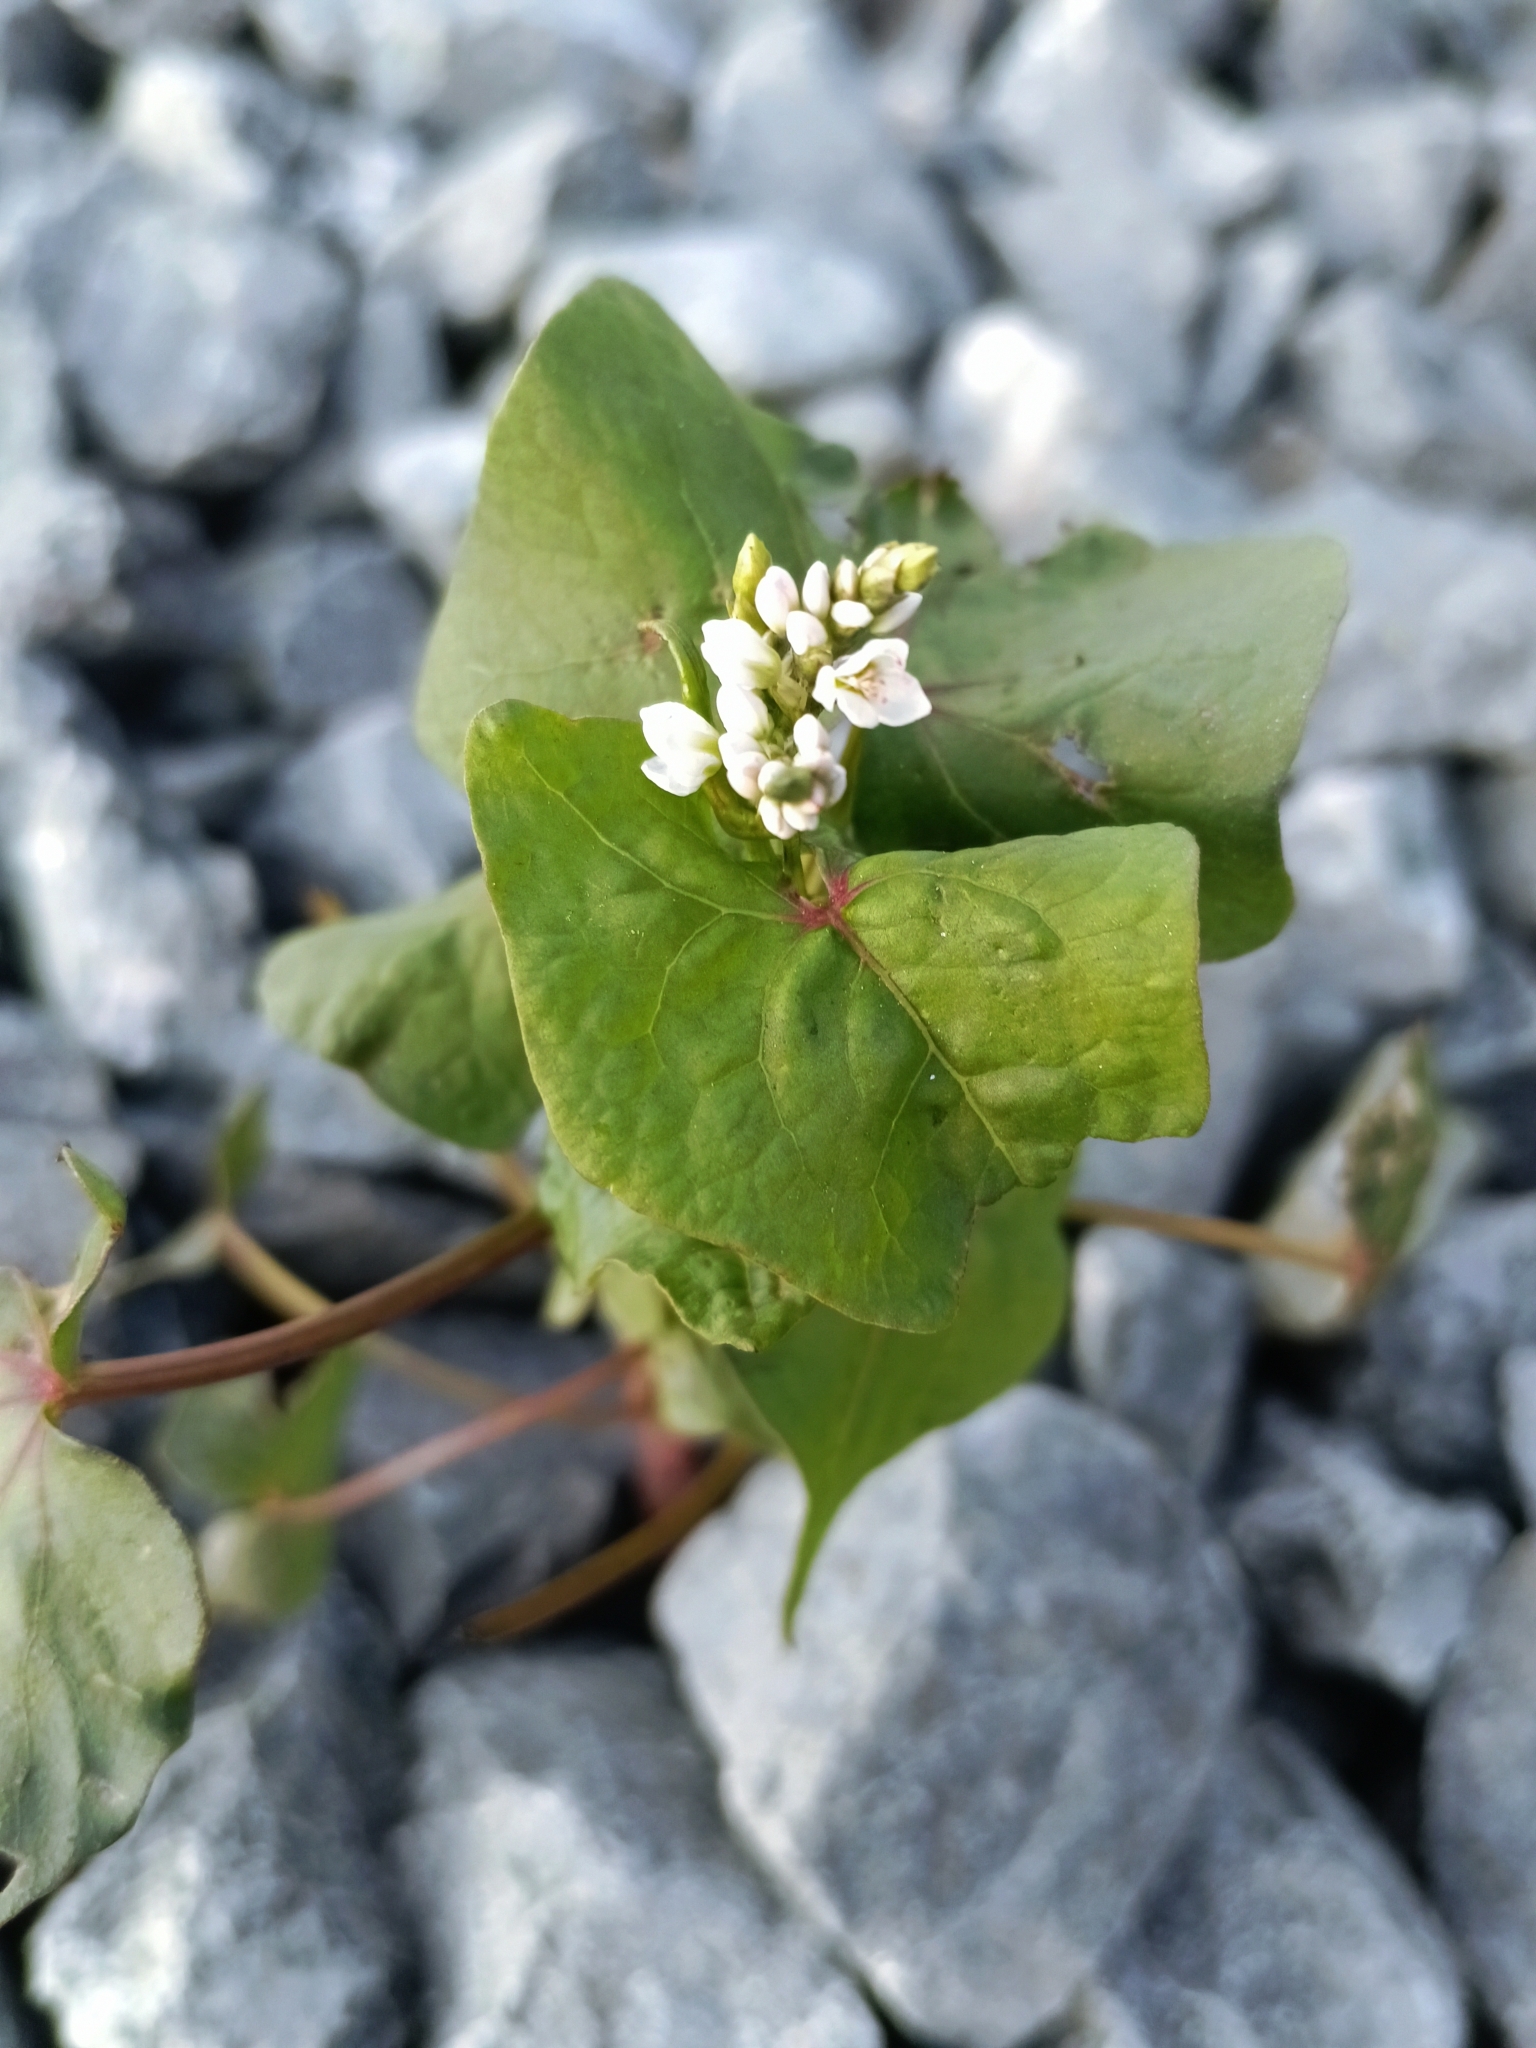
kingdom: Plantae
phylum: Tracheophyta
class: Magnoliopsida
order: Caryophyllales
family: Polygonaceae
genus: Fagopyrum
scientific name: Fagopyrum esculentum
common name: Buckwheat
